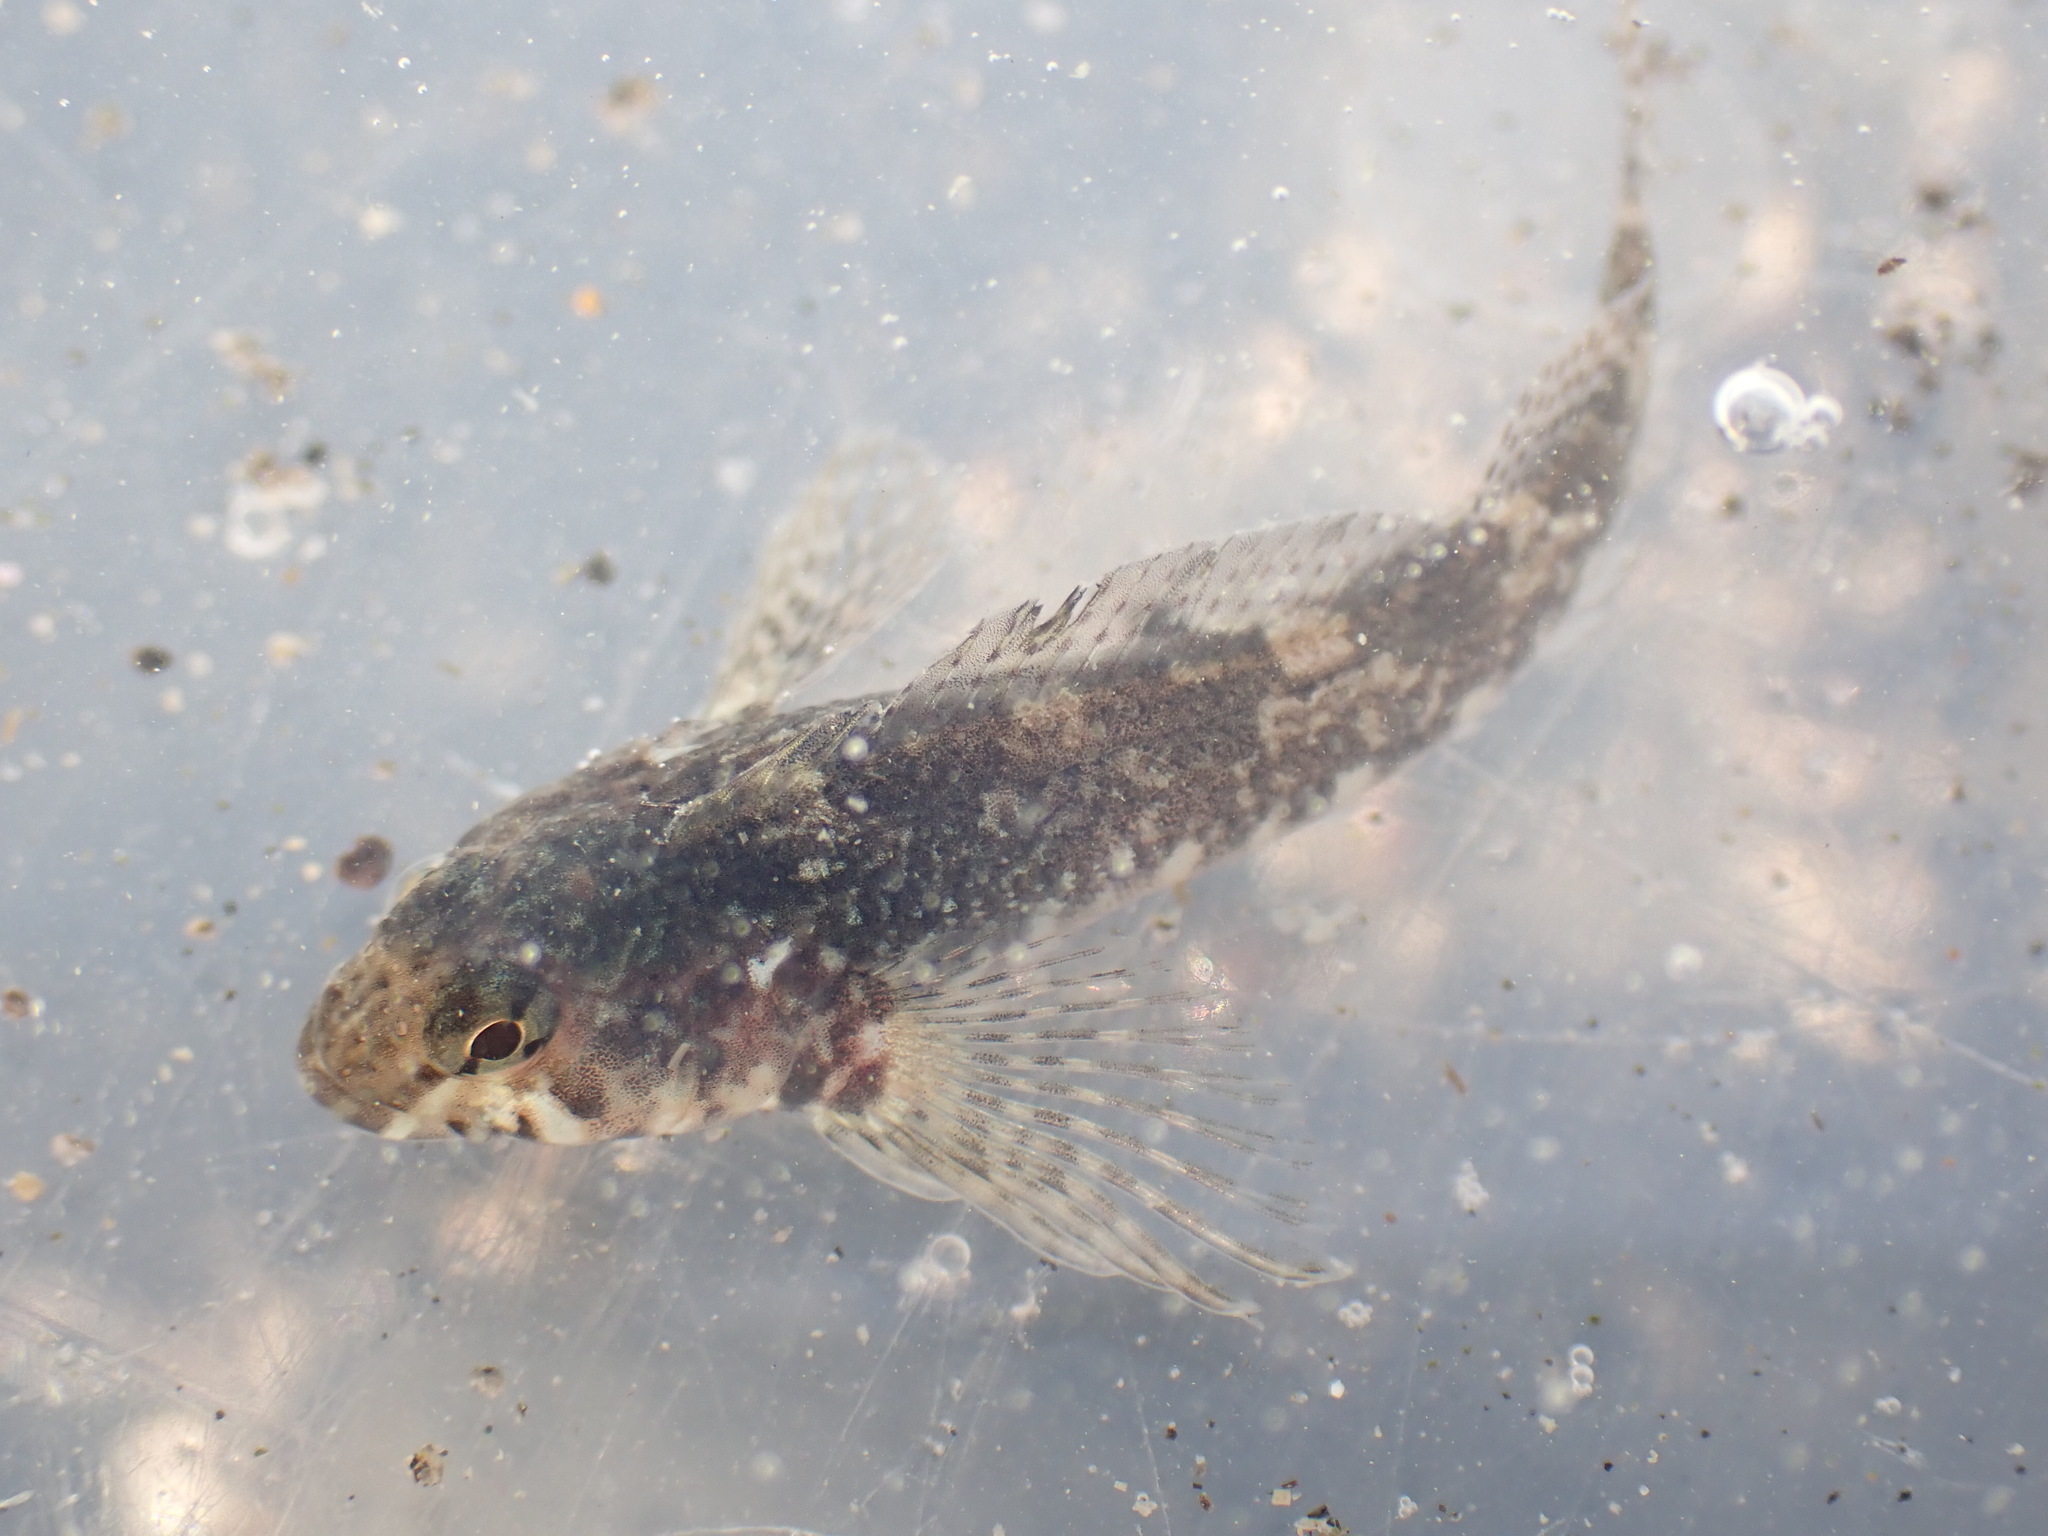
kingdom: Animalia
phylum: Chordata
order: Perciformes
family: Tripterygiidae
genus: Bellapiscis
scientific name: Bellapiscis medius
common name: Twister
